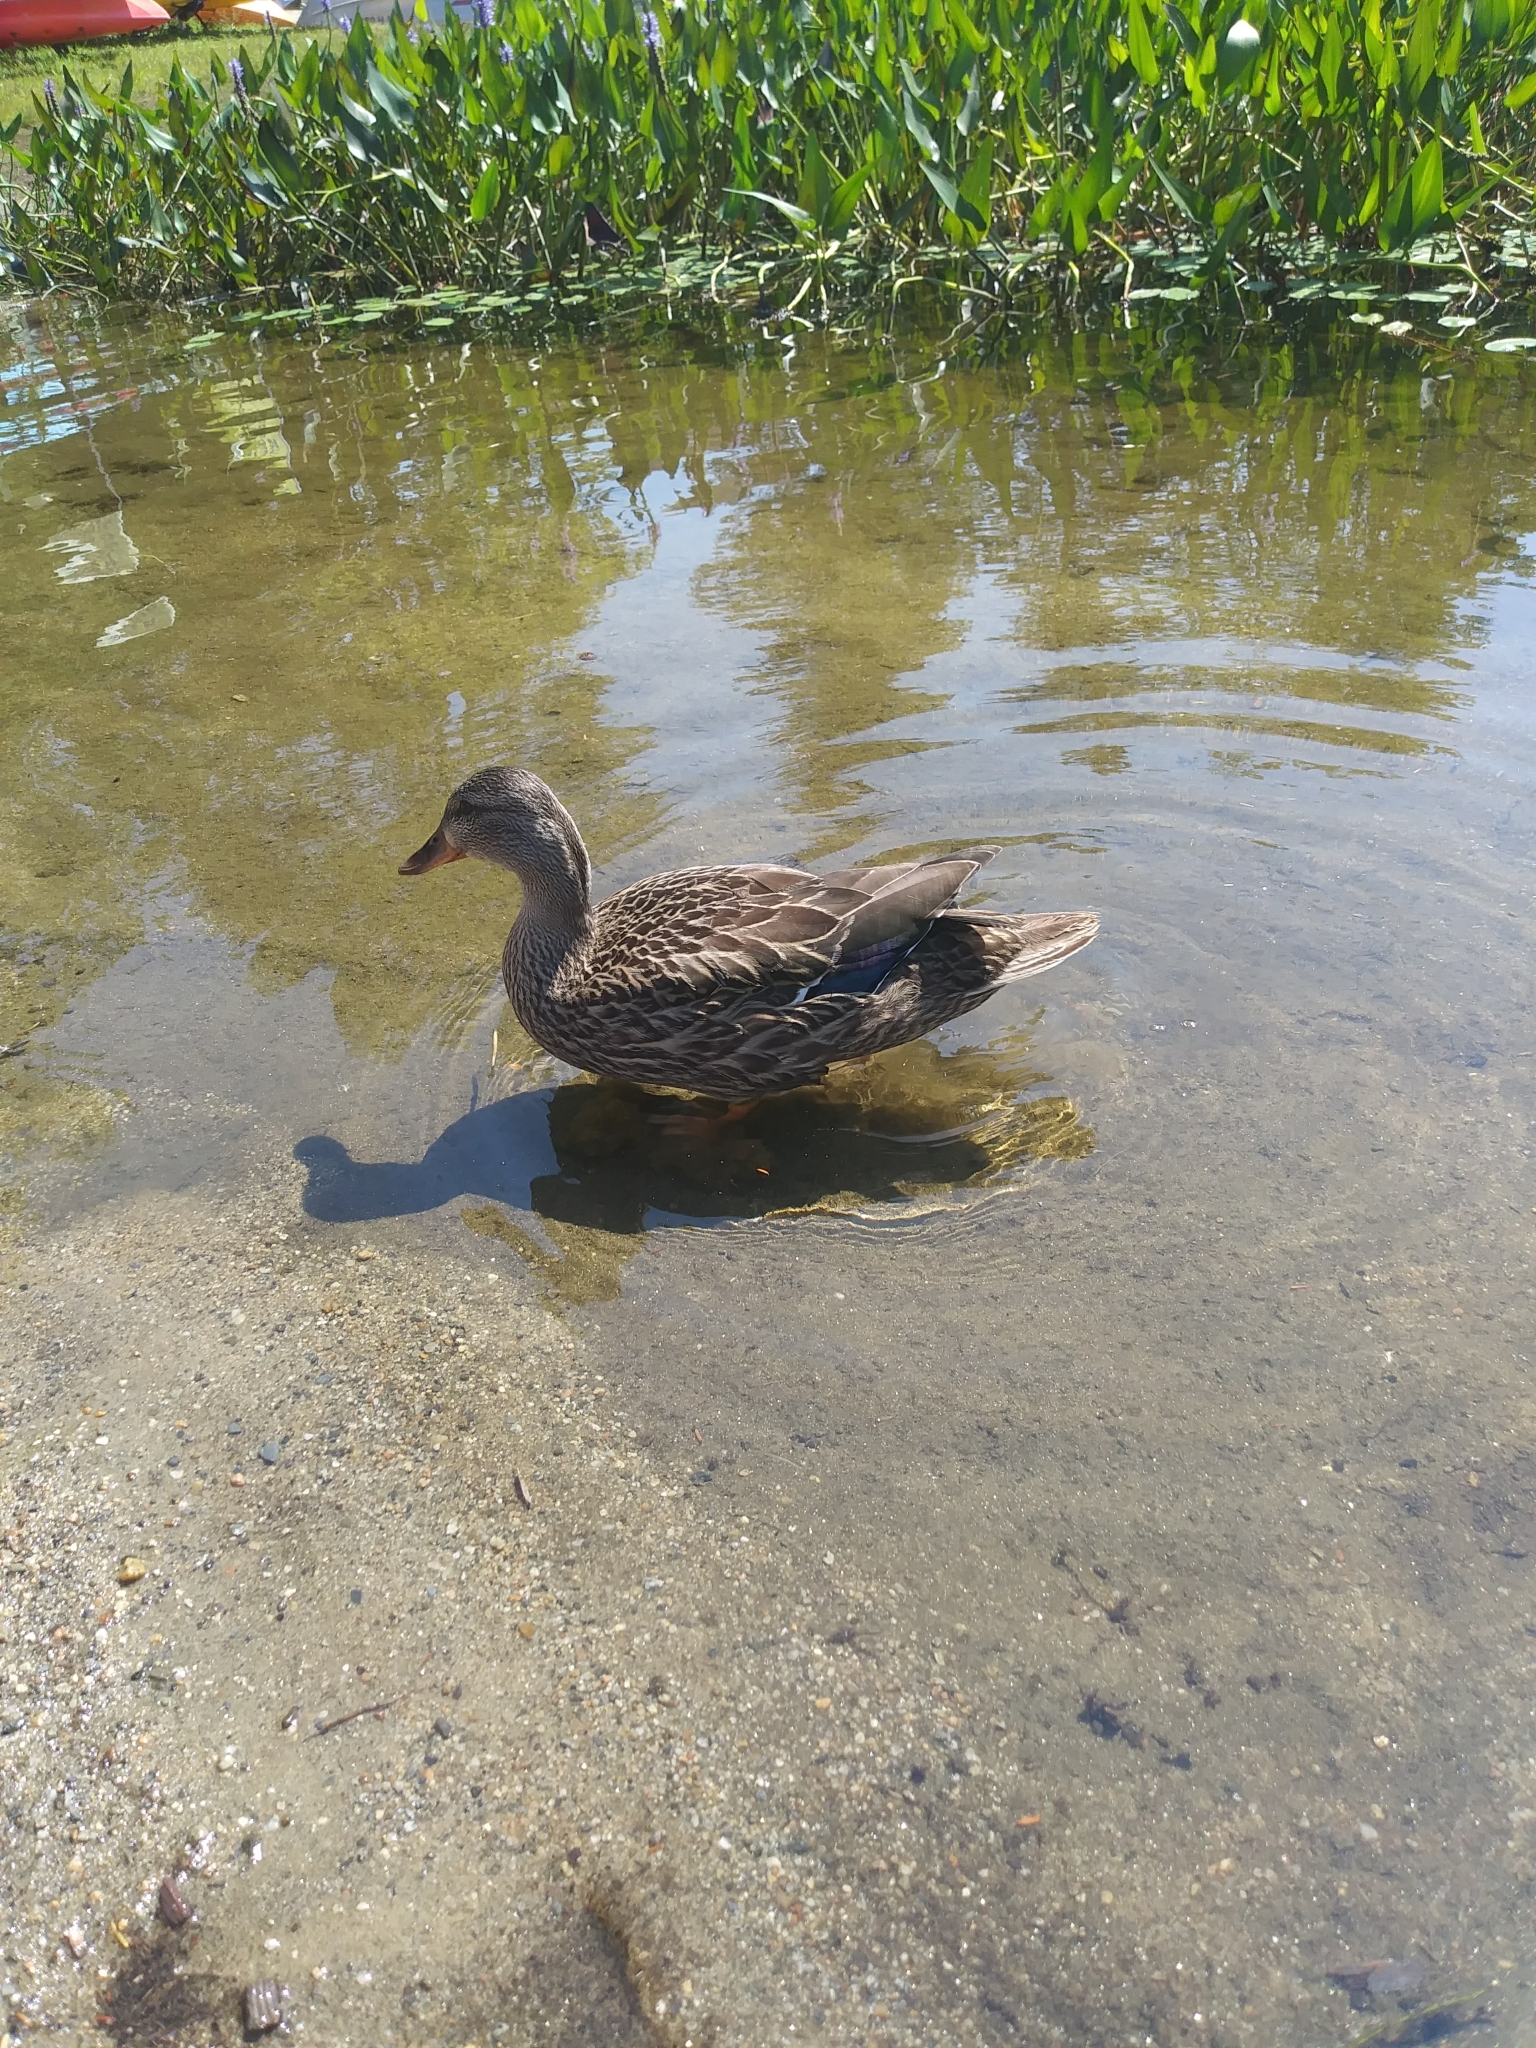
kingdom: Animalia
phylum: Chordata
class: Aves
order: Anseriformes
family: Anatidae
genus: Anas
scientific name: Anas platyrhynchos
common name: Mallard
